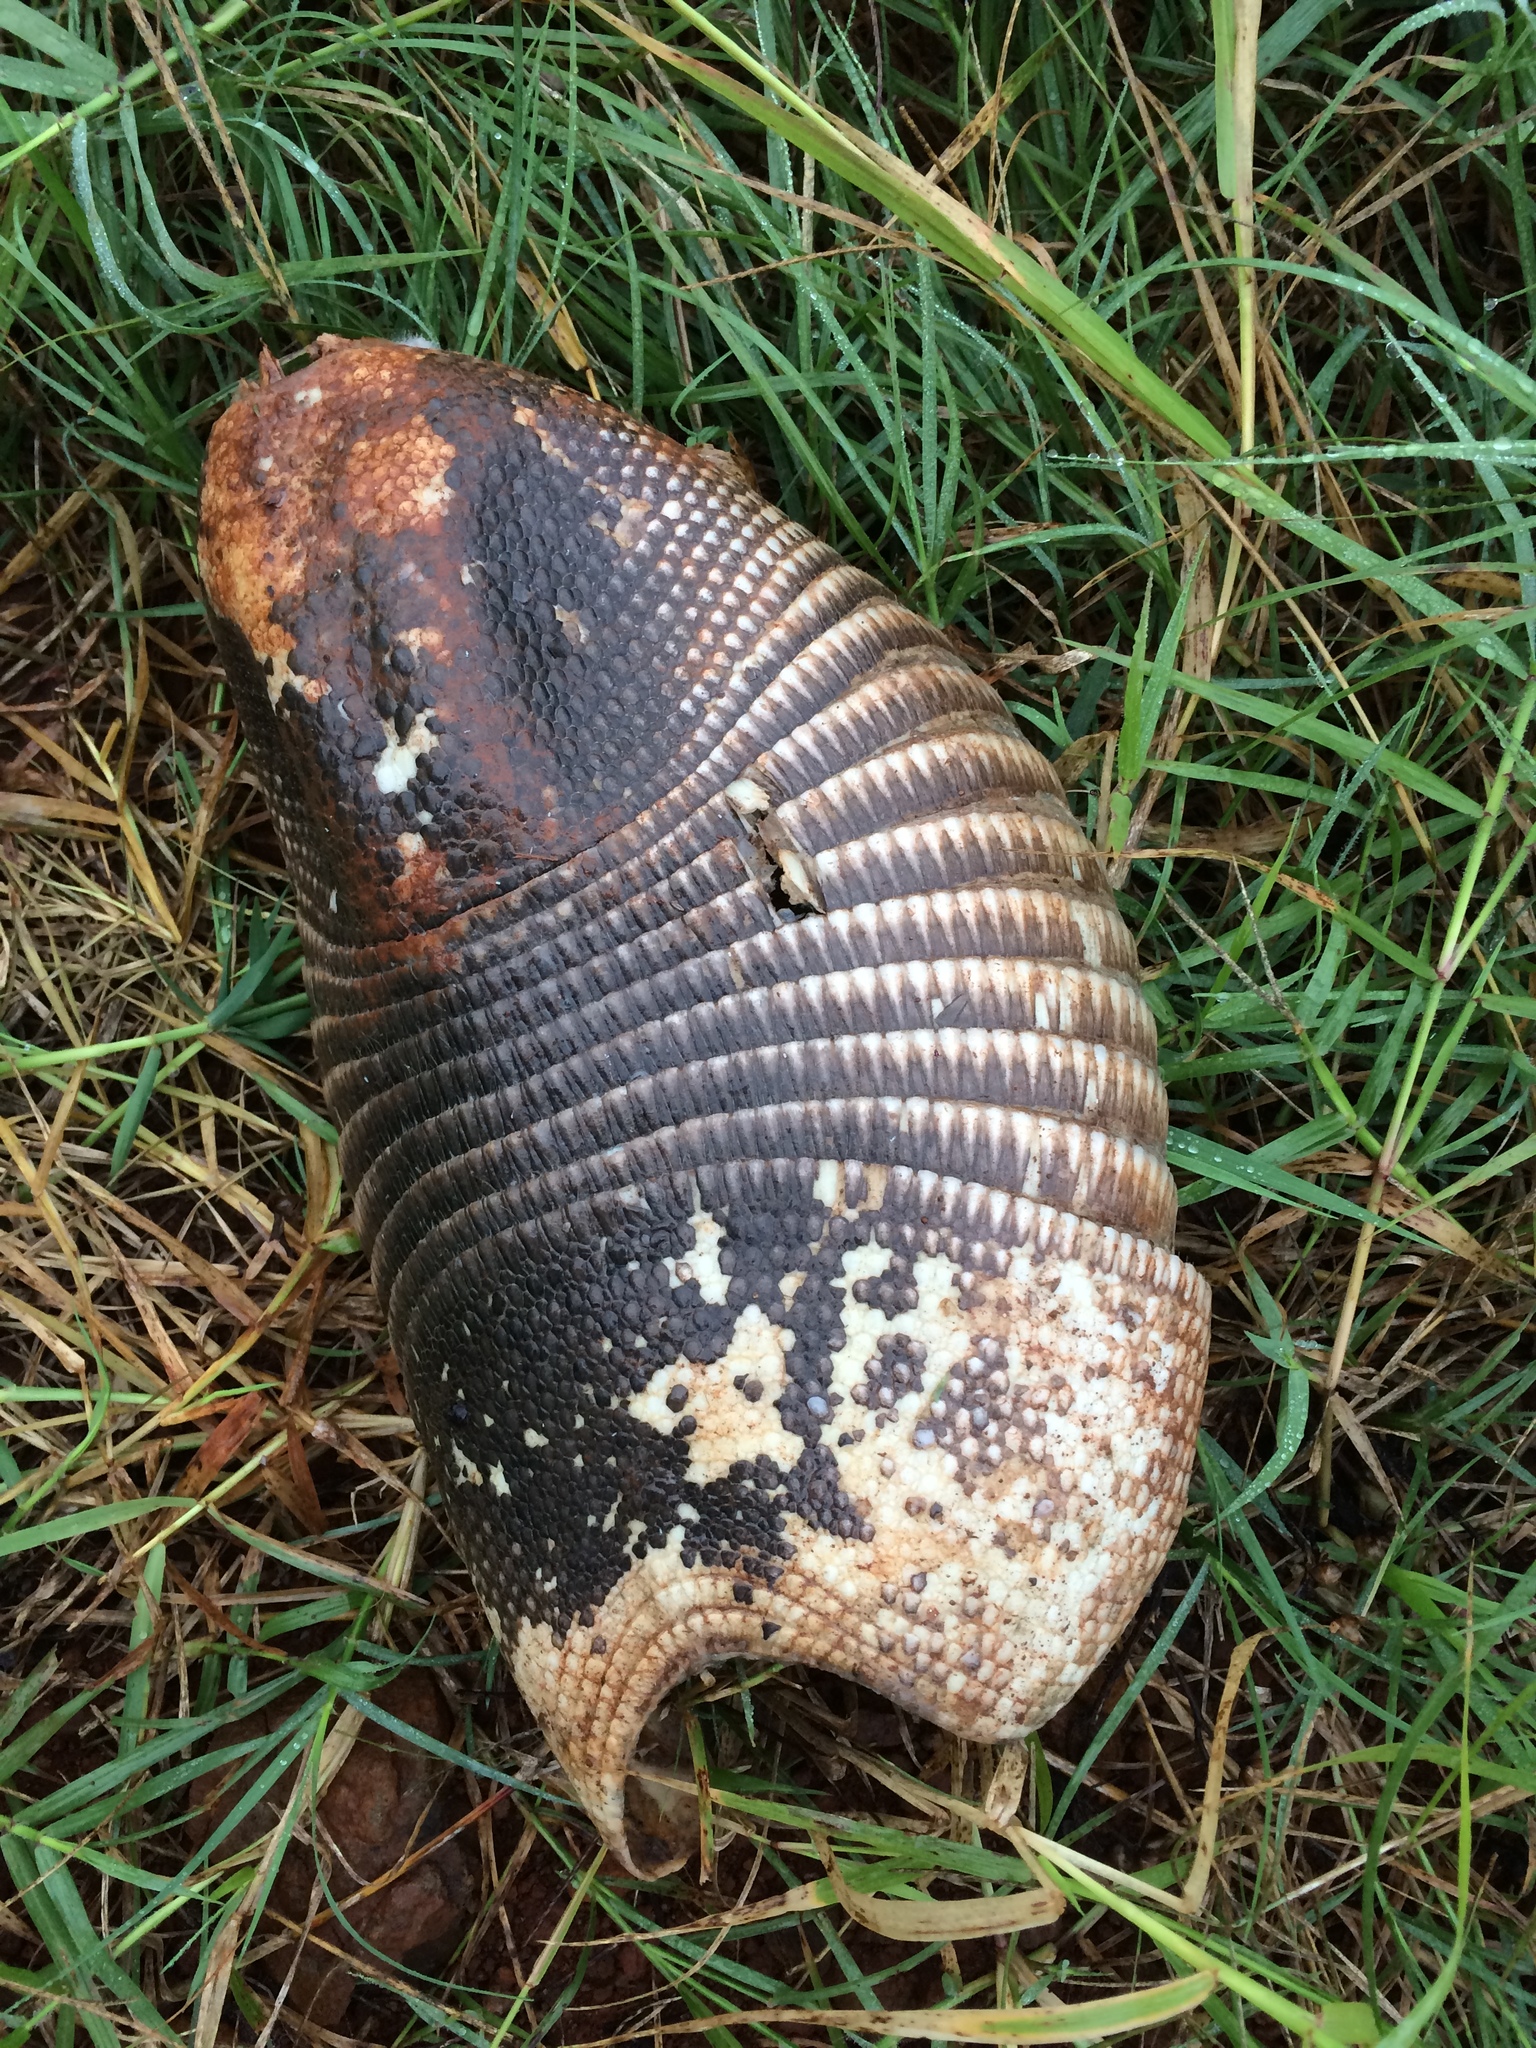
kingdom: Animalia
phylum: Chordata
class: Mammalia
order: Cingulata
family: Dasypodidae
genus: Dasypus
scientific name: Dasypus novemcinctus
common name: Nine-banded armadillo
